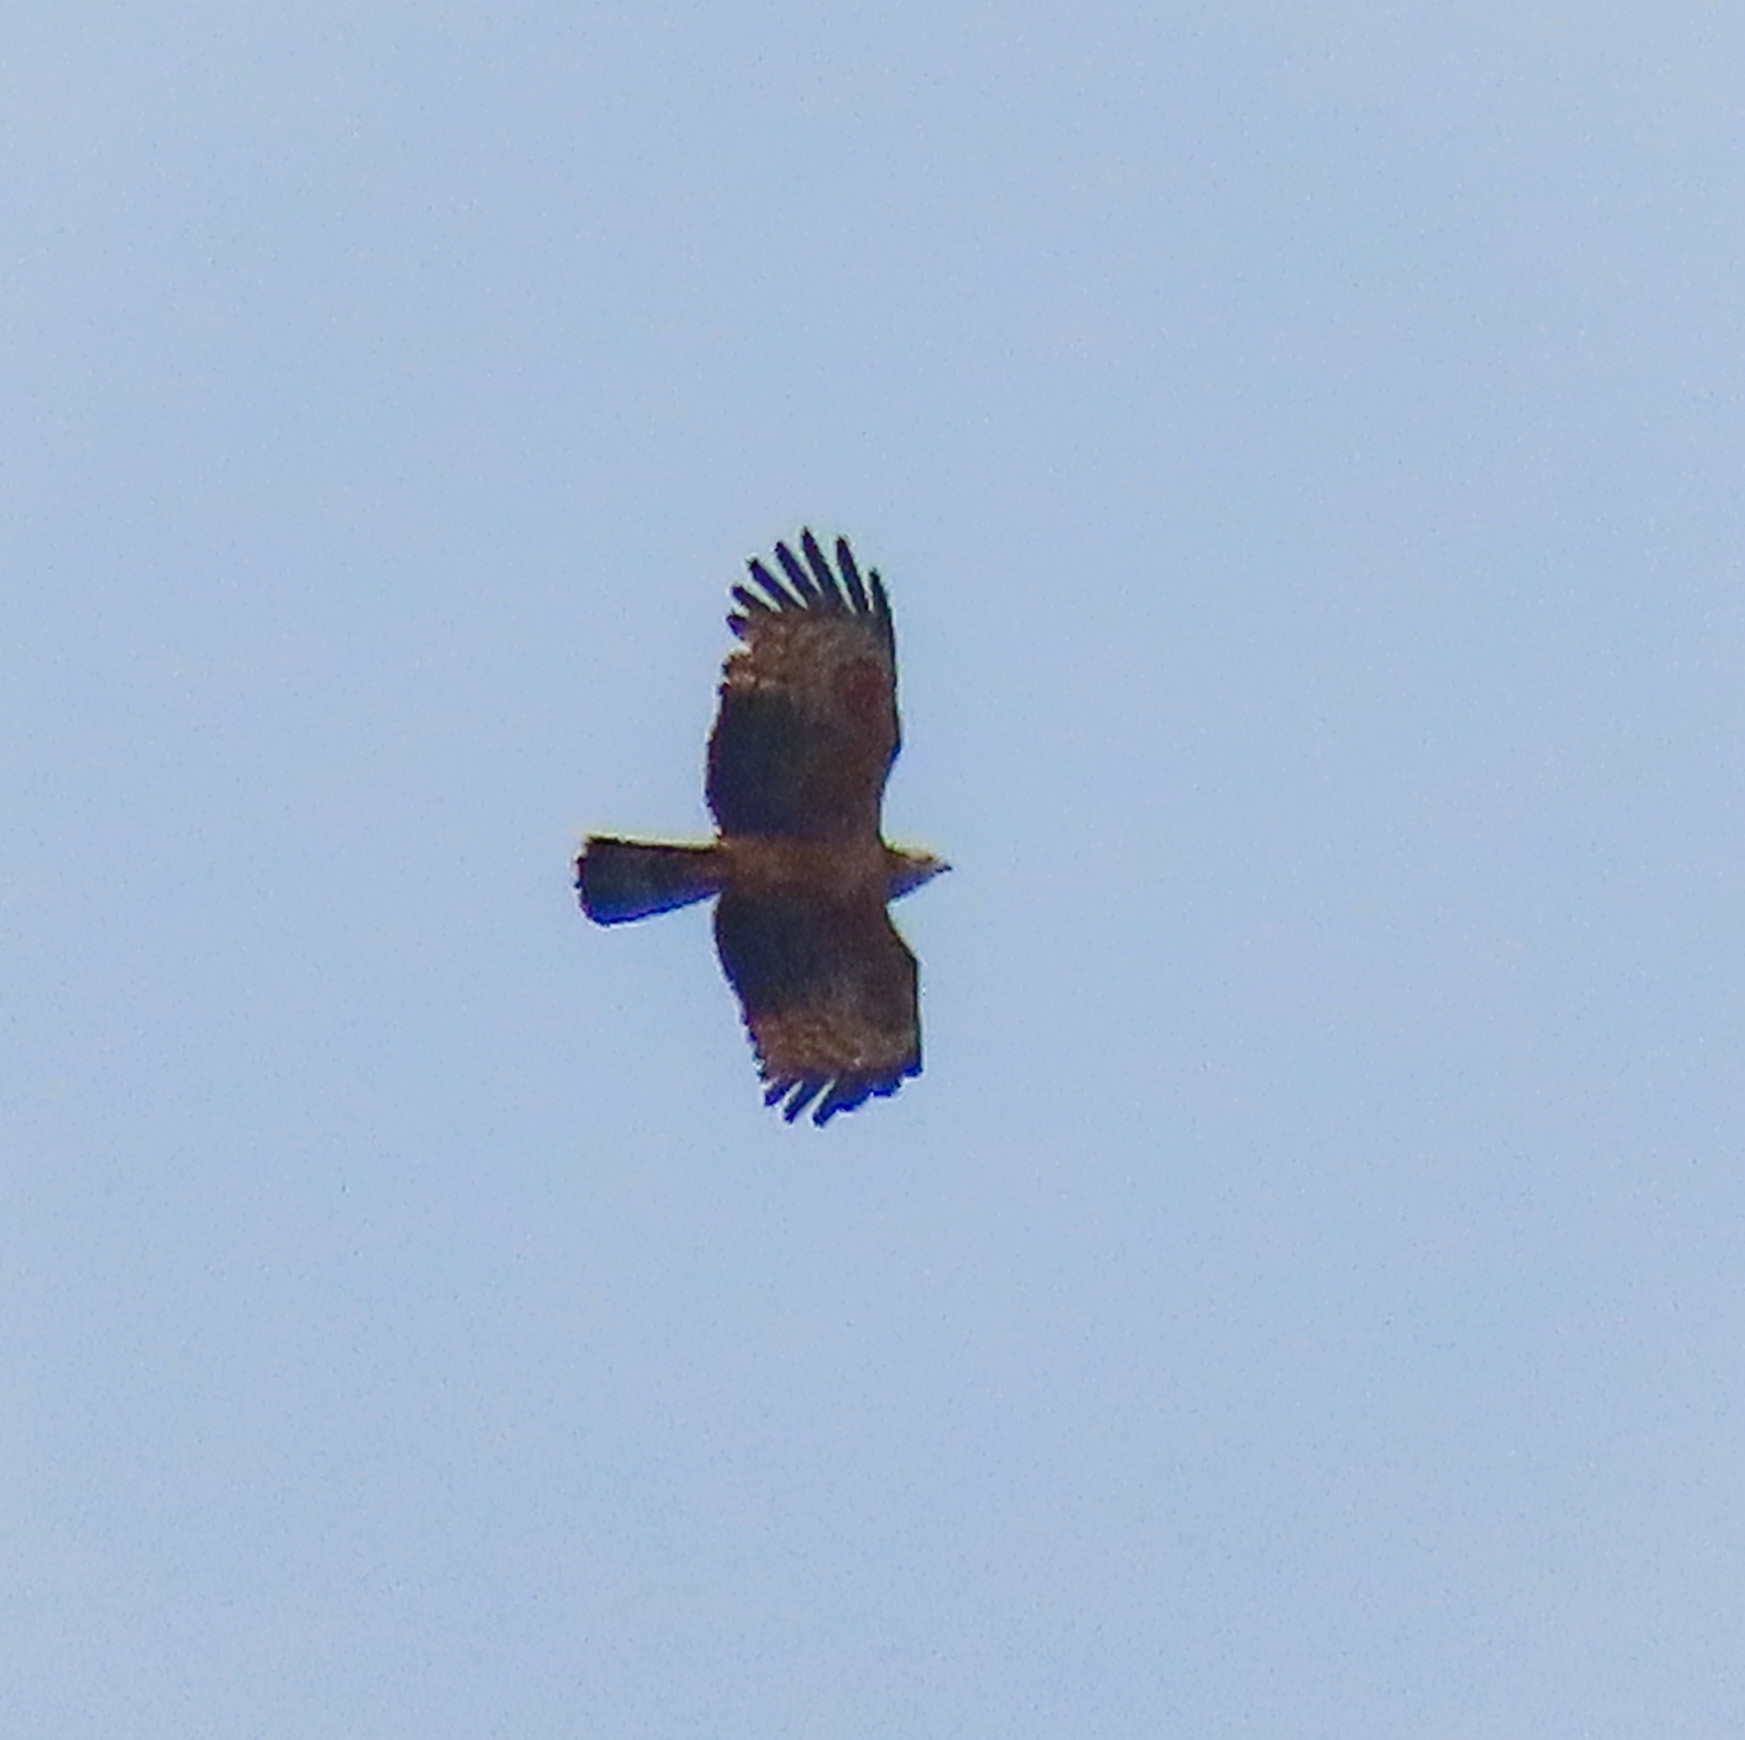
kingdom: Animalia
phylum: Chordata
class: Aves
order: Accipitriformes
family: Accipitridae
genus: Pernis
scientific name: Pernis ptilorhynchus
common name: Crested honey buzzard
